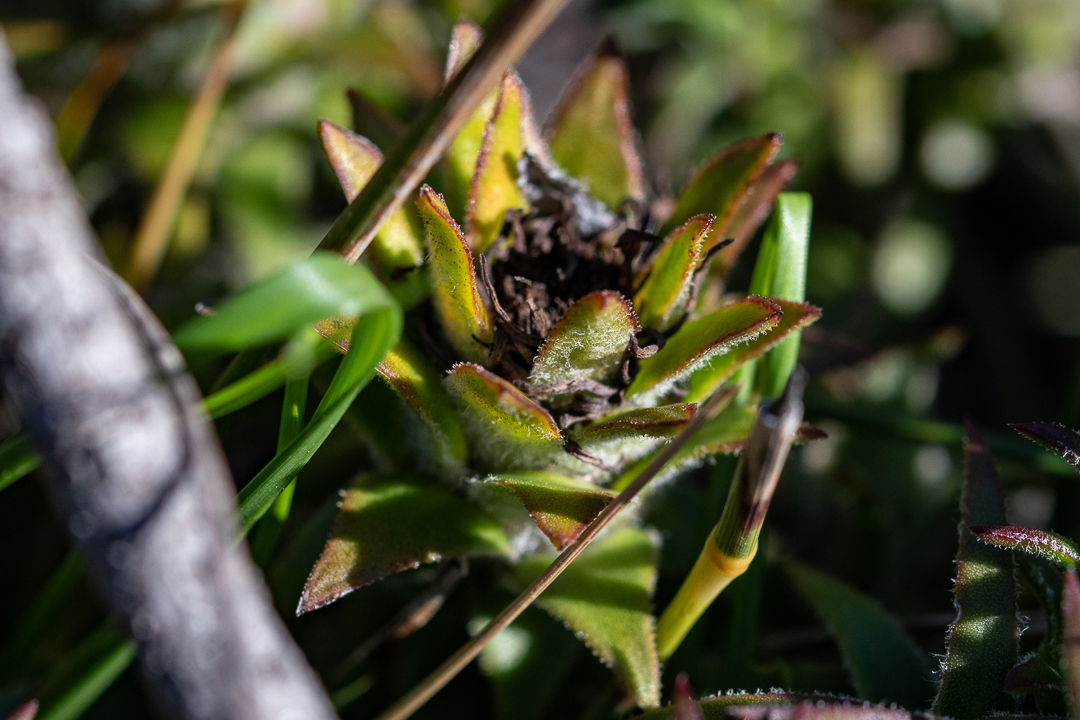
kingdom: Plantae
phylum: Tracheophyta
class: Magnoliopsida
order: Asterales
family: Asteraceae
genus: Oedera
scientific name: Oedera imbricata
